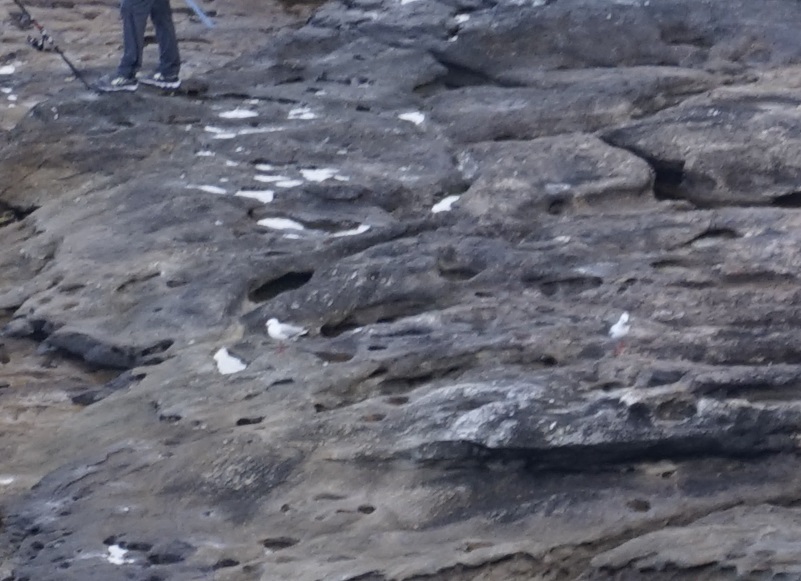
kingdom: Animalia
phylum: Chordata
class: Aves
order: Charadriiformes
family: Laridae
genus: Chroicocephalus
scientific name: Chroicocephalus novaehollandiae
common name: Silver gull
